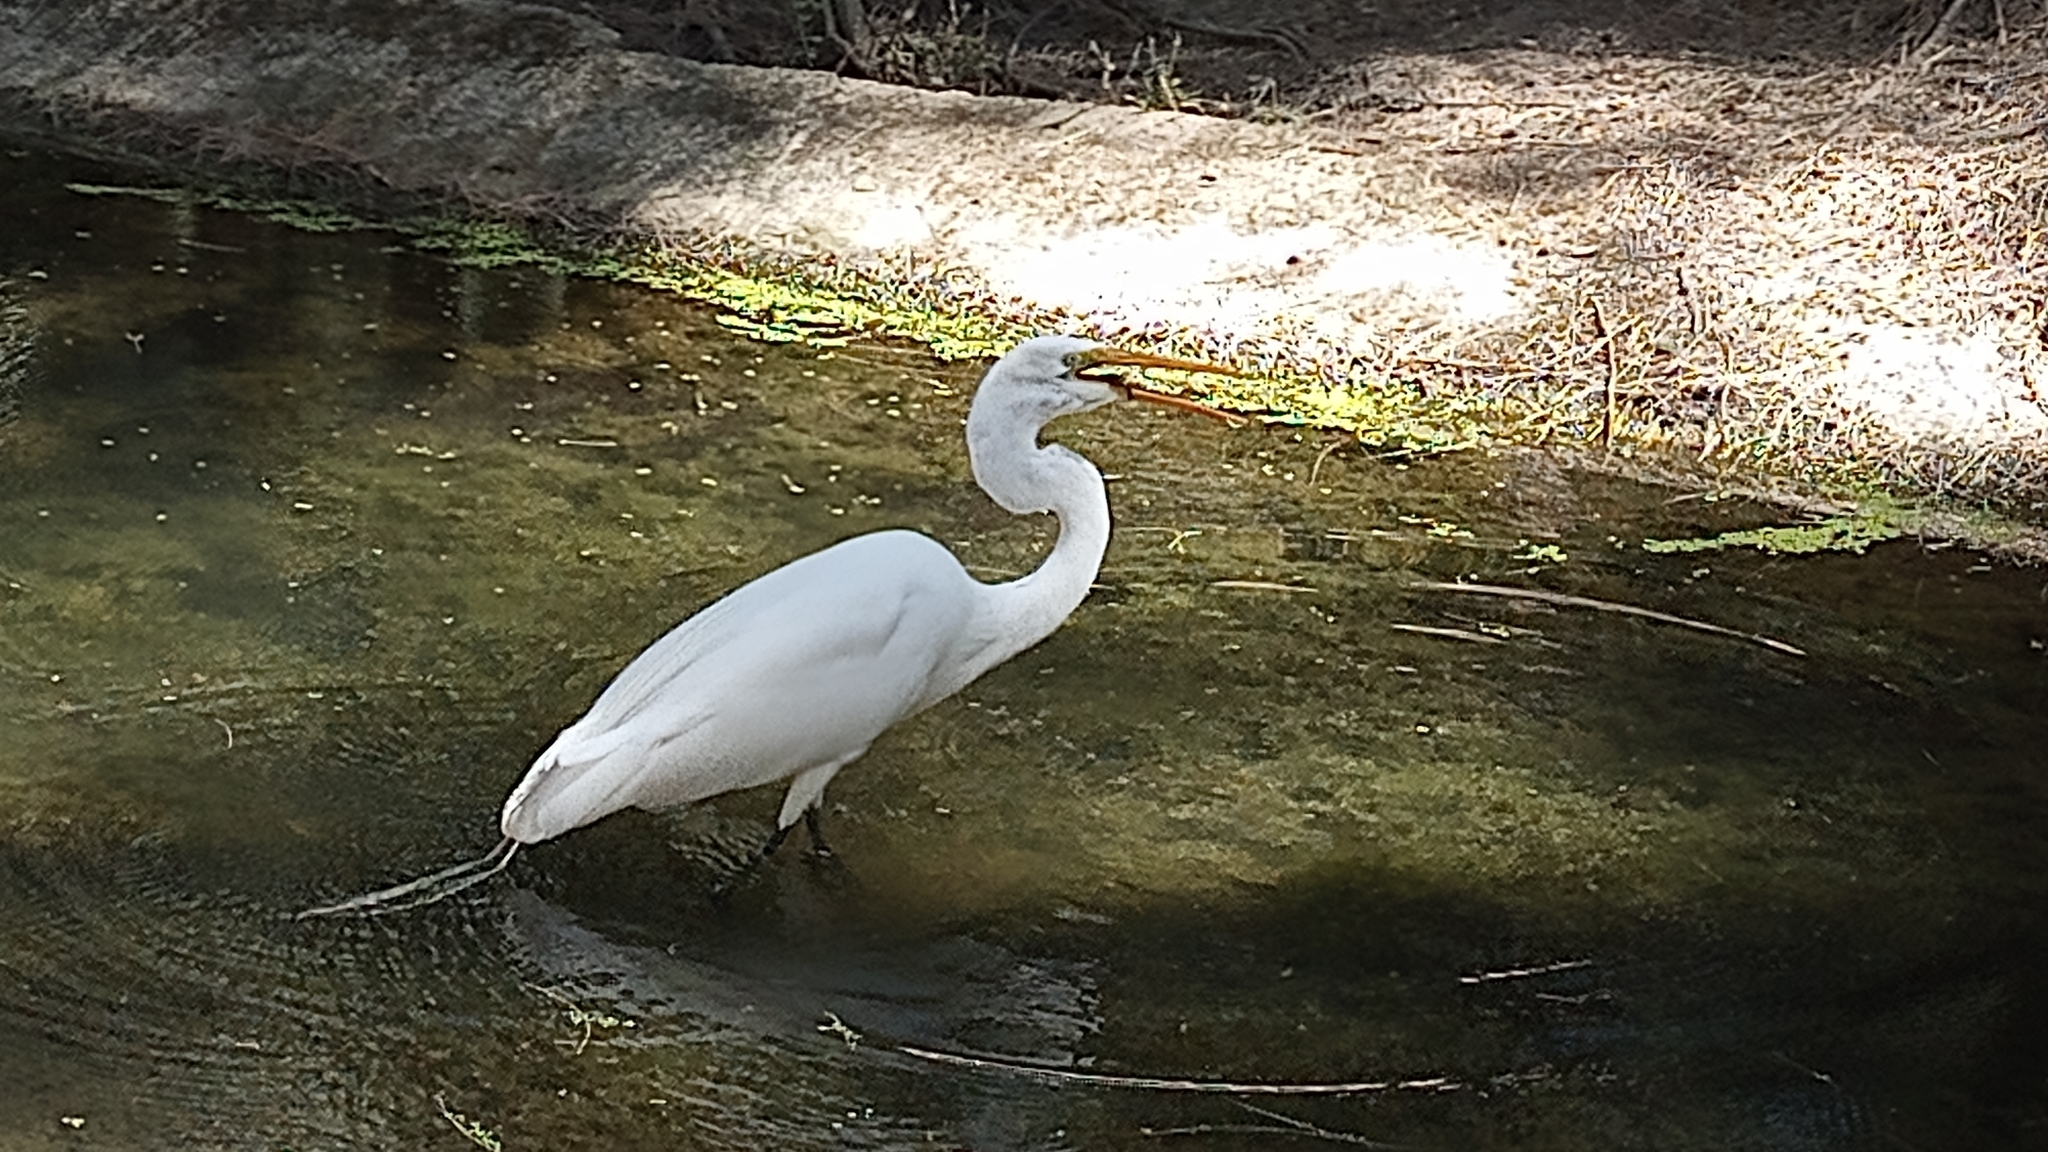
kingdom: Animalia
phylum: Chordata
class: Aves
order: Pelecaniformes
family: Ardeidae
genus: Ardea
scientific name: Ardea alba
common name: Great egret
